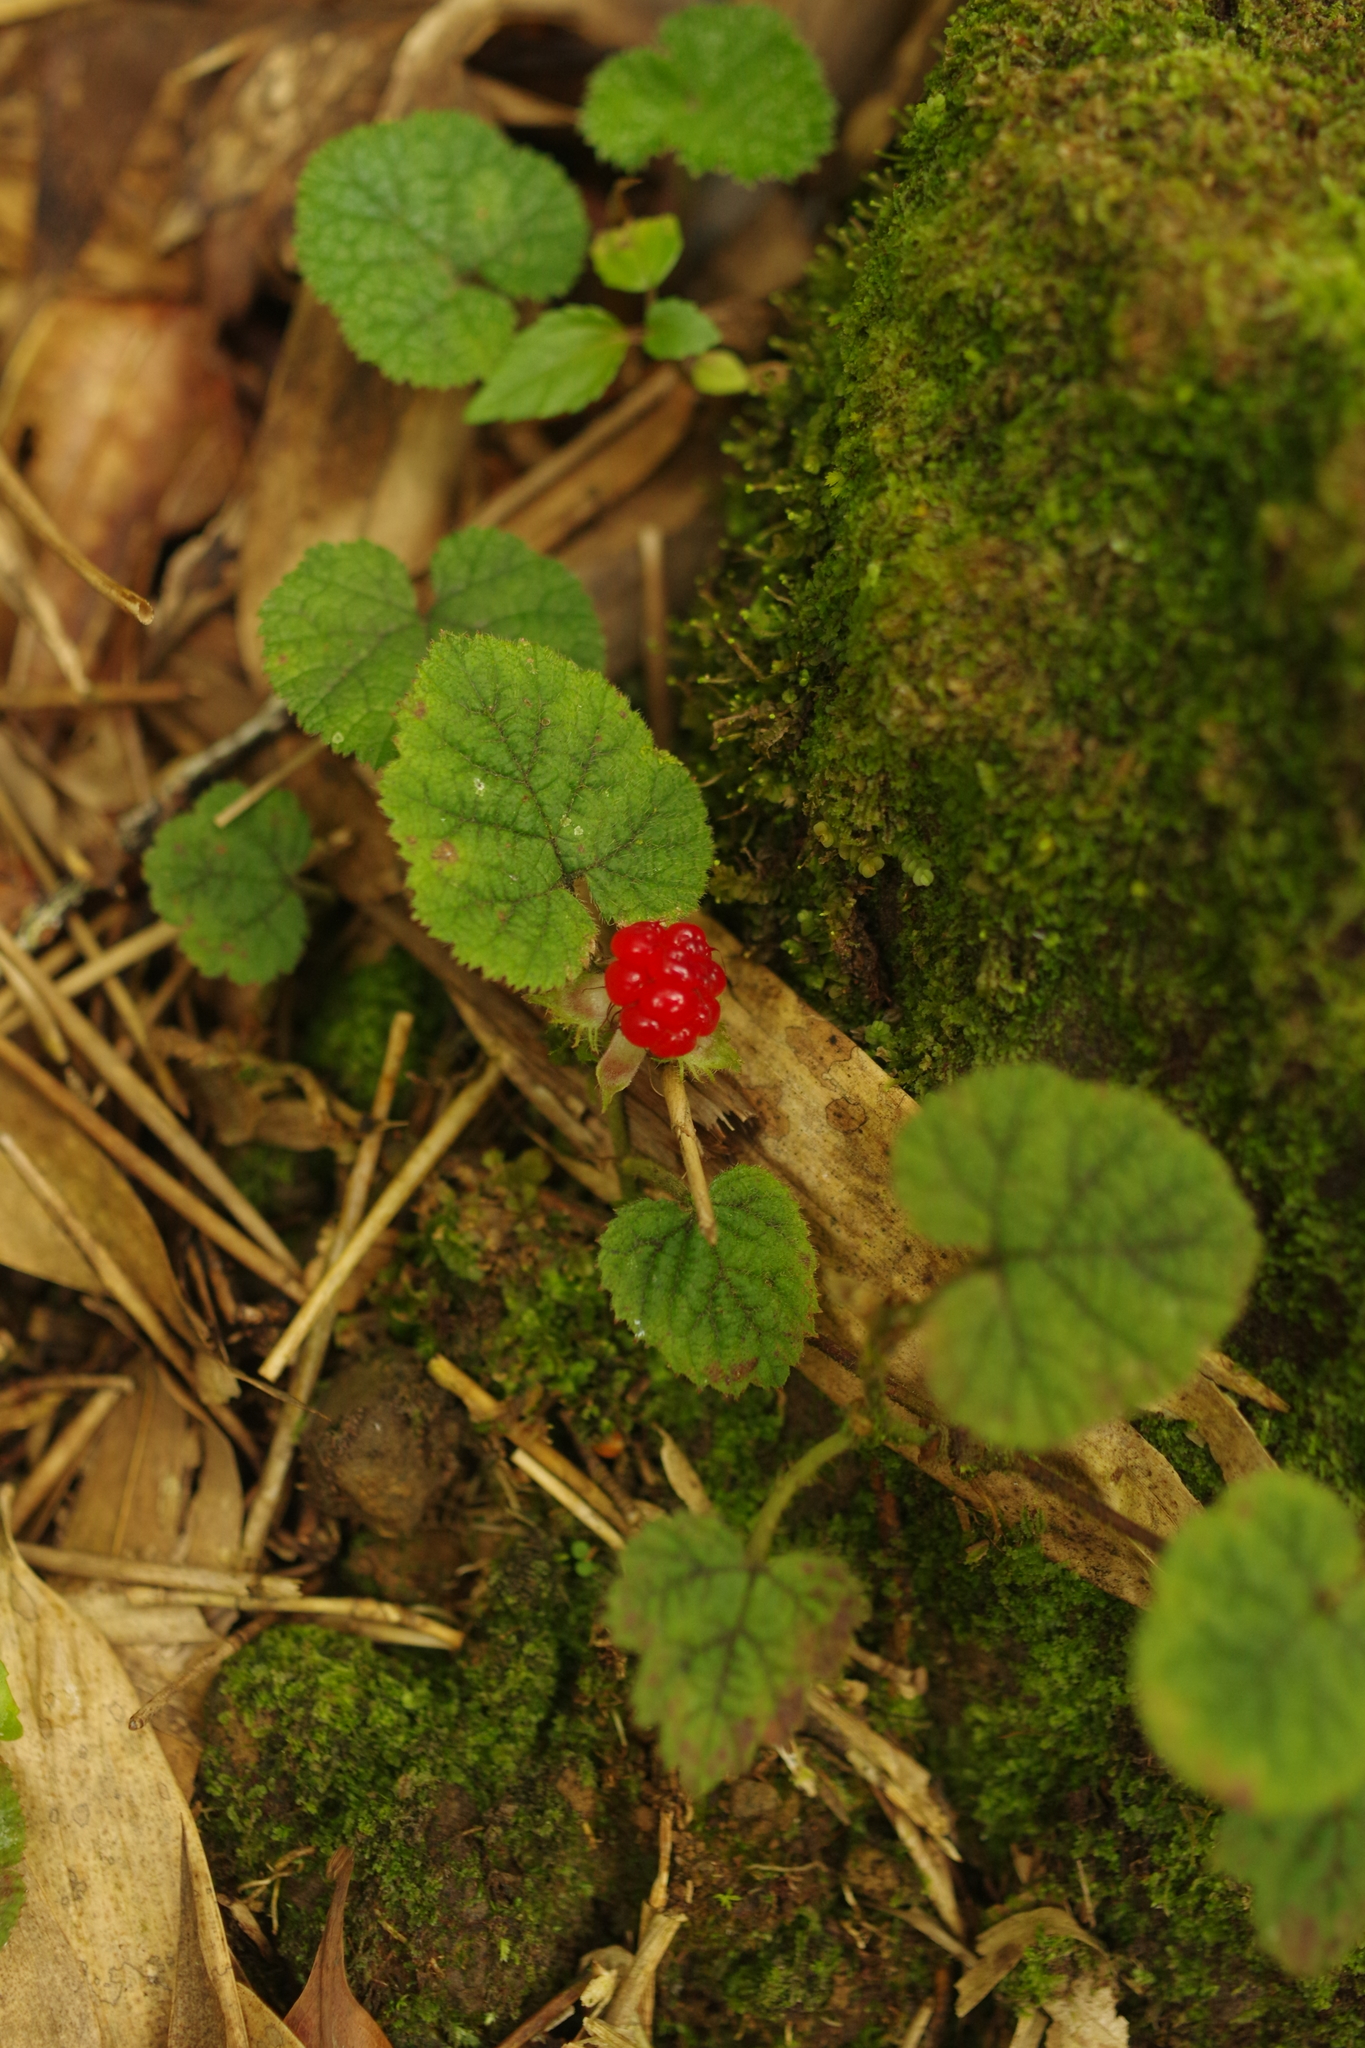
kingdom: Plantae
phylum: Tracheophyta
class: Magnoliopsida
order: Rosales
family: Rosaceae
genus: Rubus
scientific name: Rubus pectinellus
